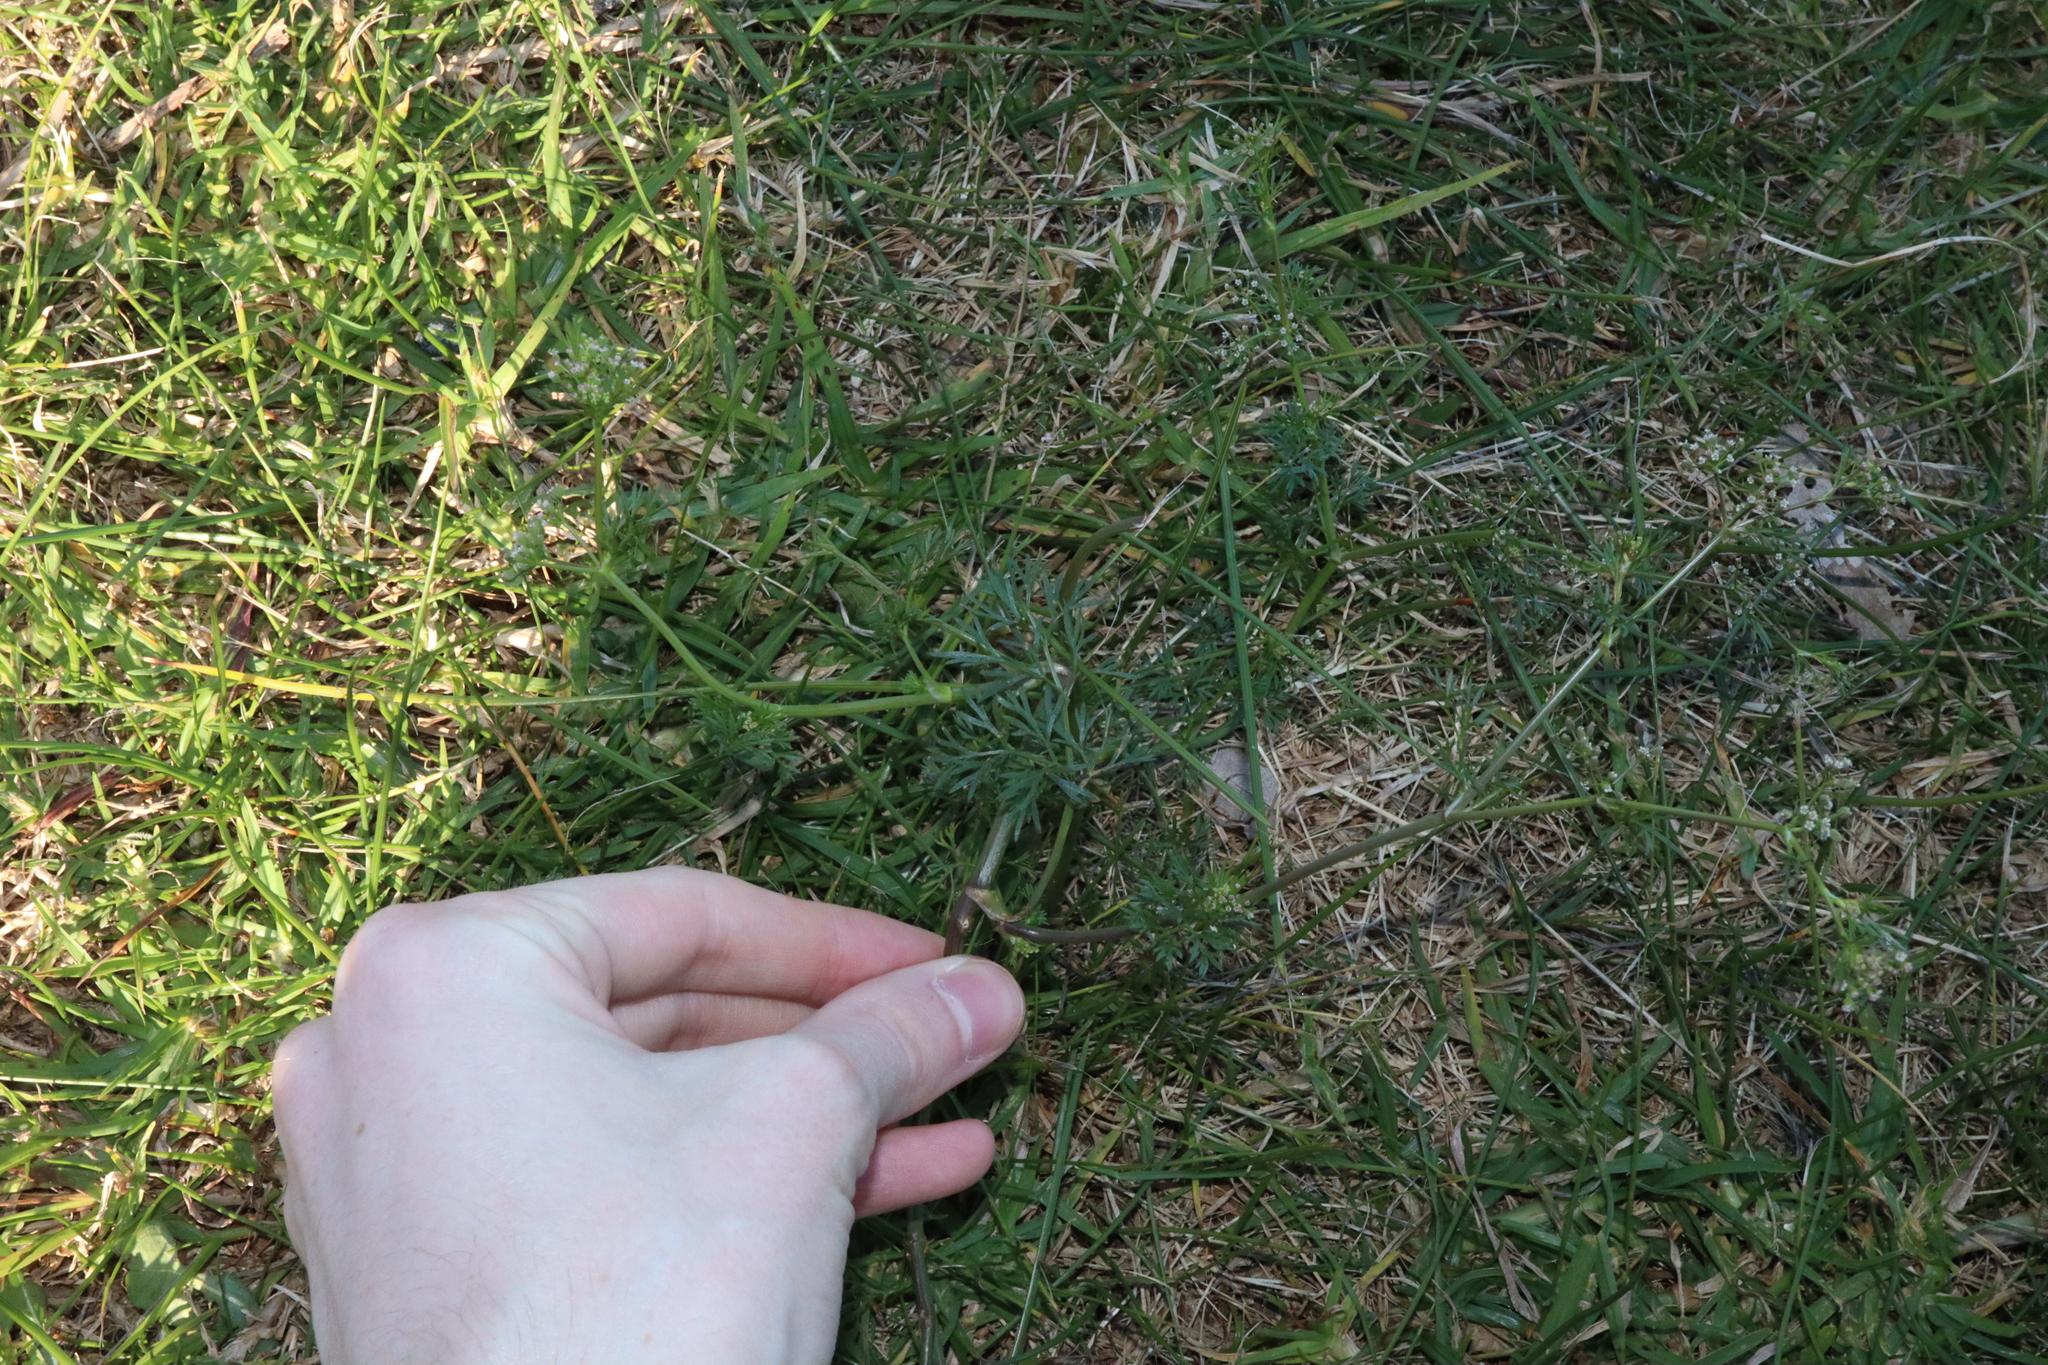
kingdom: Plantae
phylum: Tracheophyta
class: Magnoliopsida
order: Apiales
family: Apiaceae
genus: Cyclospermum
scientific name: Cyclospermum leptophyllum
